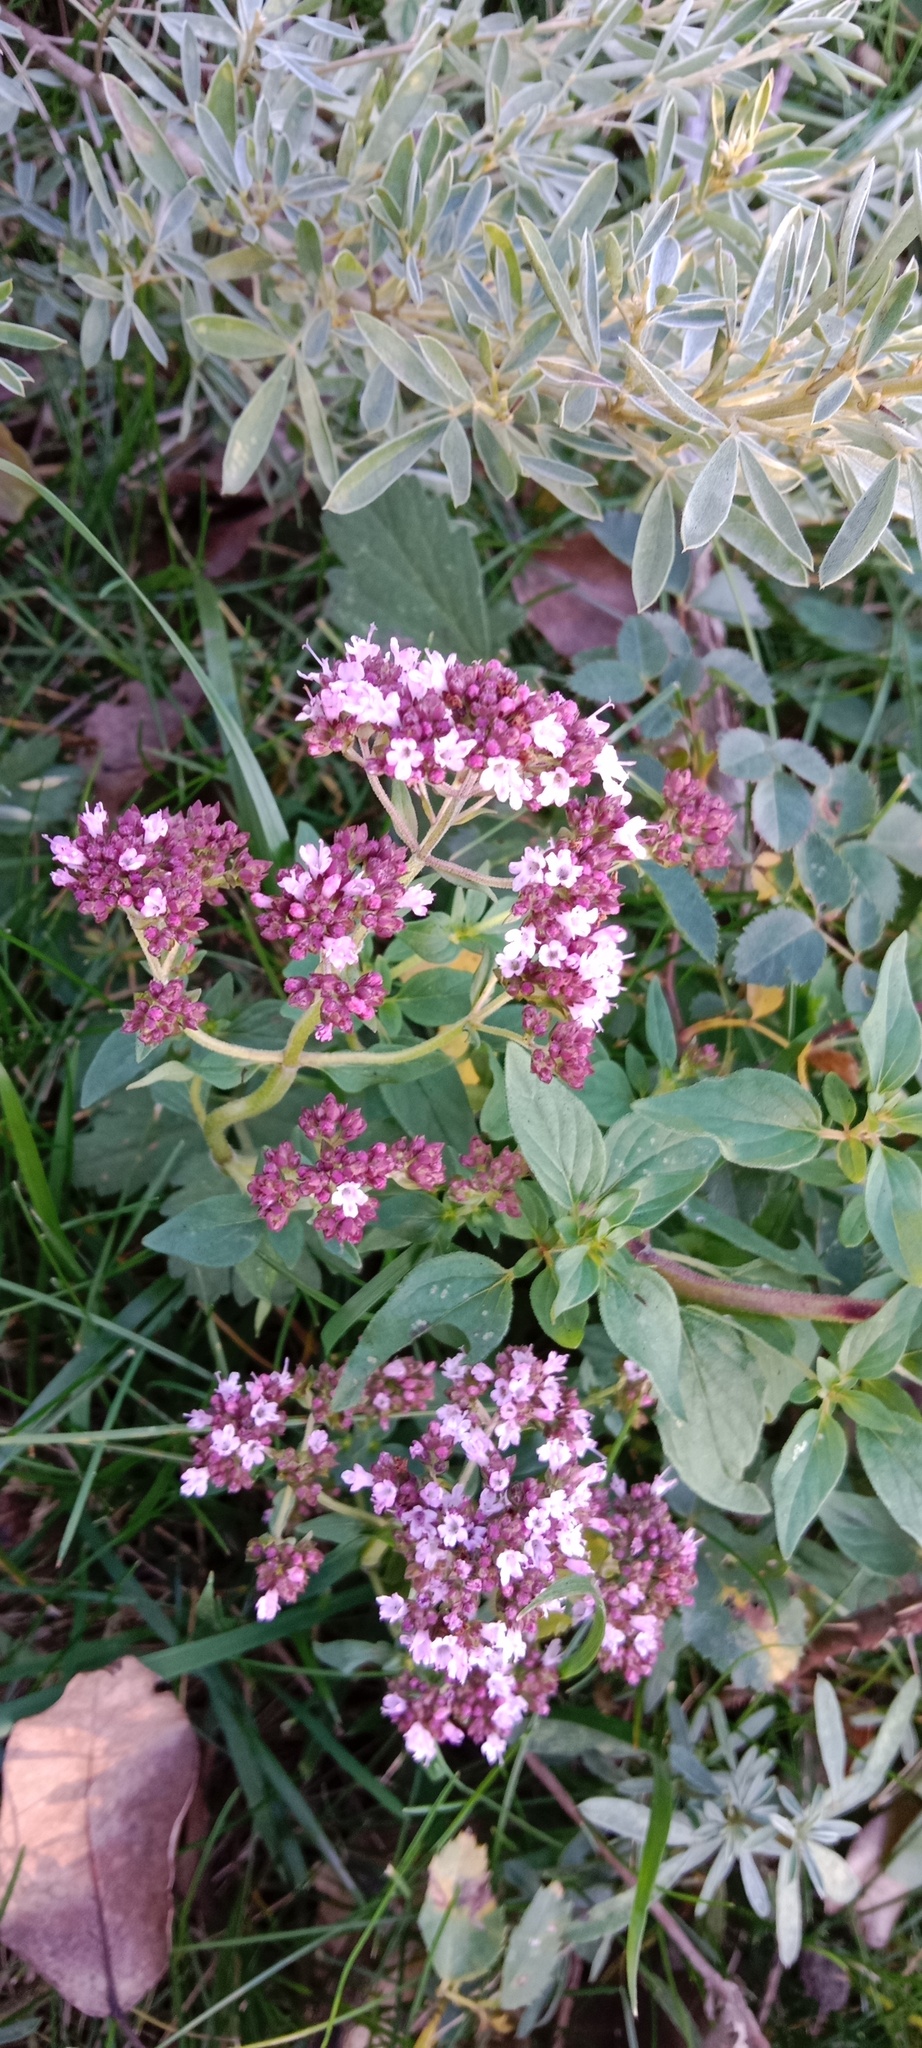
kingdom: Plantae
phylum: Tracheophyta
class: Magnoliopsida
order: Lamiales
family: Lamiaceae
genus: Origanum
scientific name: Origanum vulgare
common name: Wild marjoram
